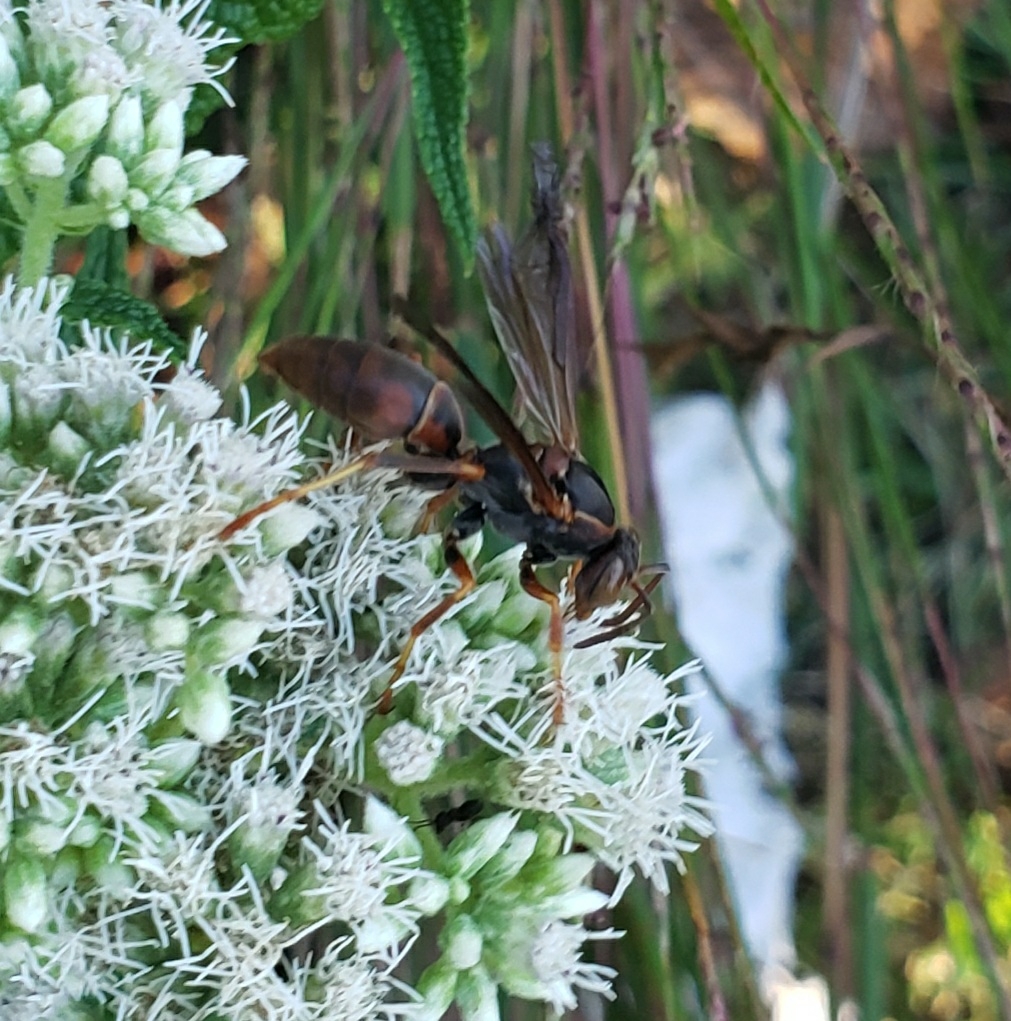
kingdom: Animalia
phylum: Arthropoda
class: Insecta
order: Hymenoptera
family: Eumenidae
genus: Polistes
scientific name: Polistes fuscatus
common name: Dark paper wasp
